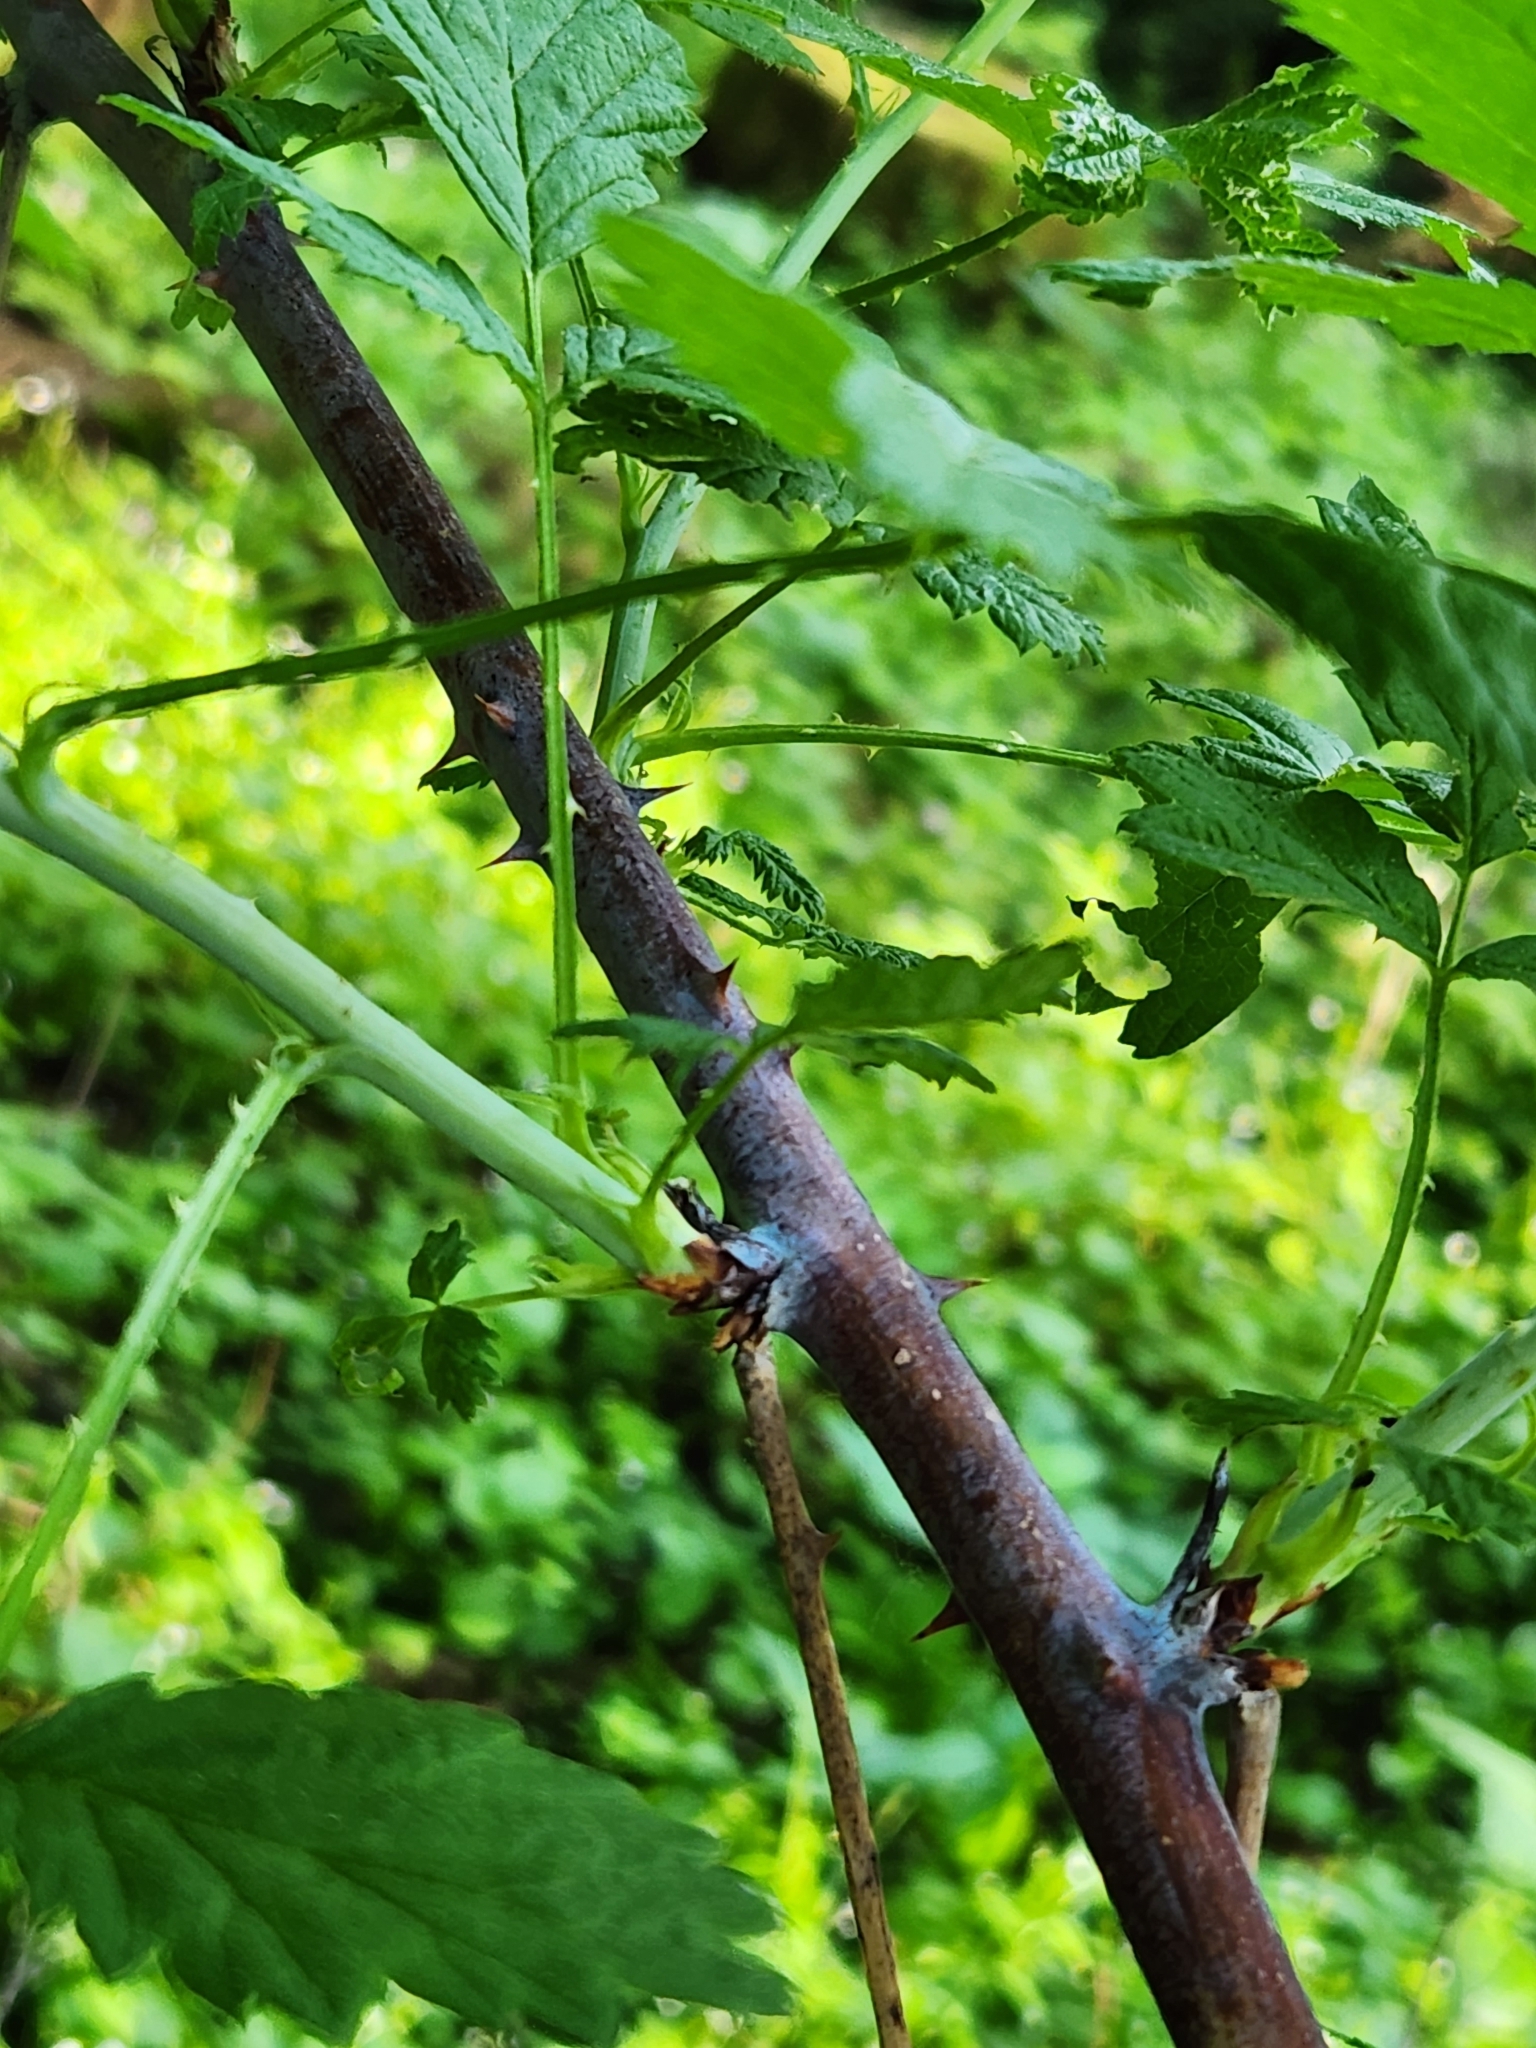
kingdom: Plantae
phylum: Tracheophyta
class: Magnoliopsida
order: Rosales
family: Rosaceae
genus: Rubus
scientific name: Rubus leucodermis
